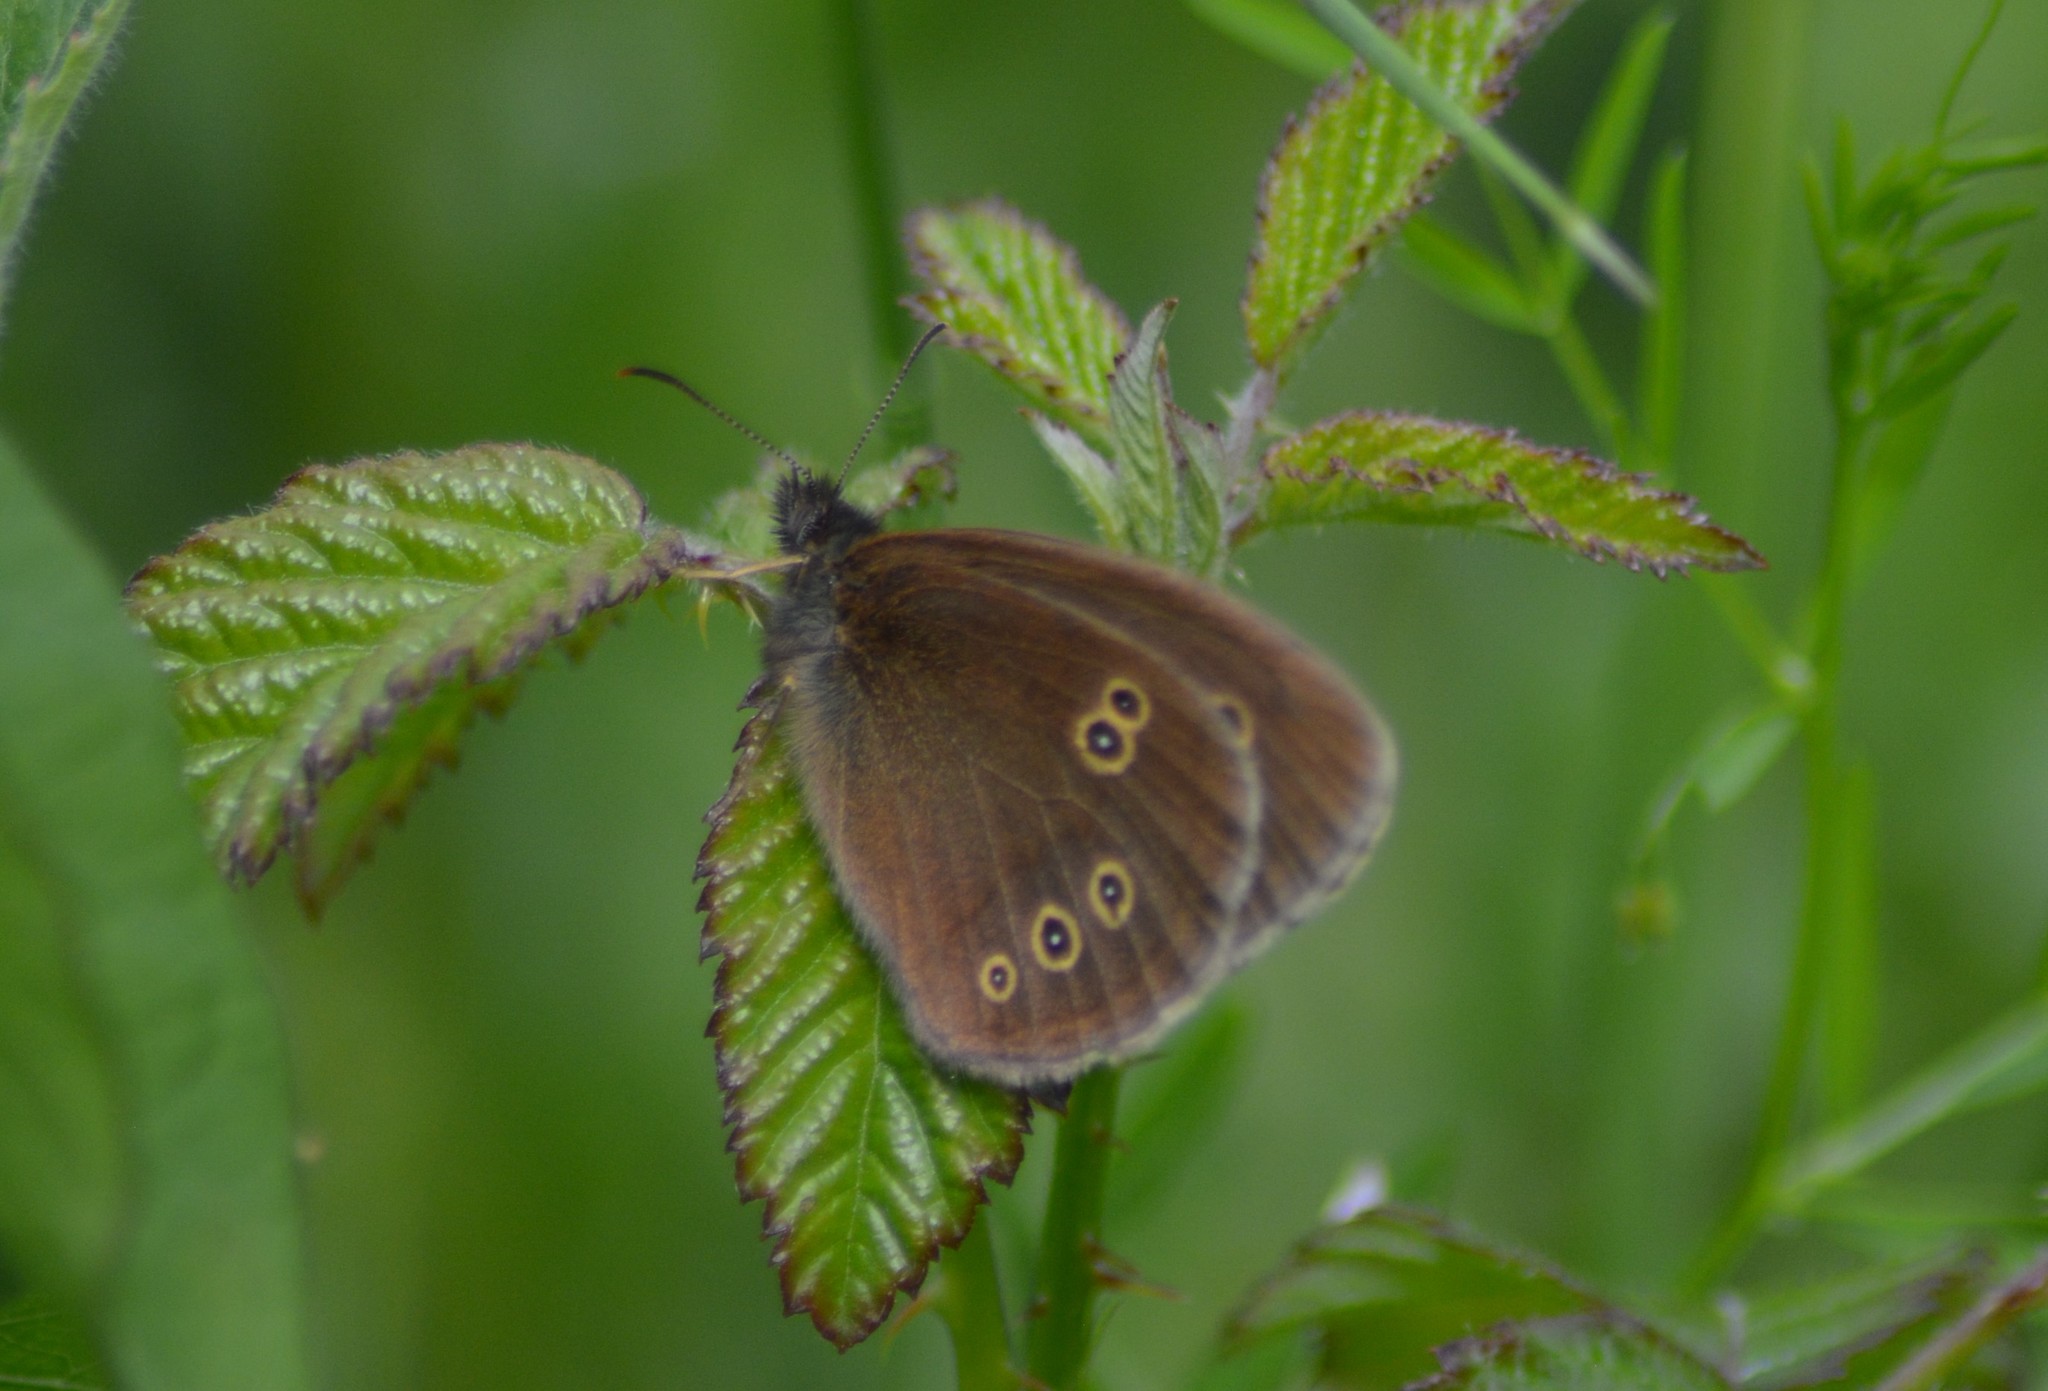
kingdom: Animalia
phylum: Arthropoda
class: Insecta
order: Lepidoptera
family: Nymphalidae
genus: Aphantopus
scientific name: Aphantopus hyperantus
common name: Ringlet
